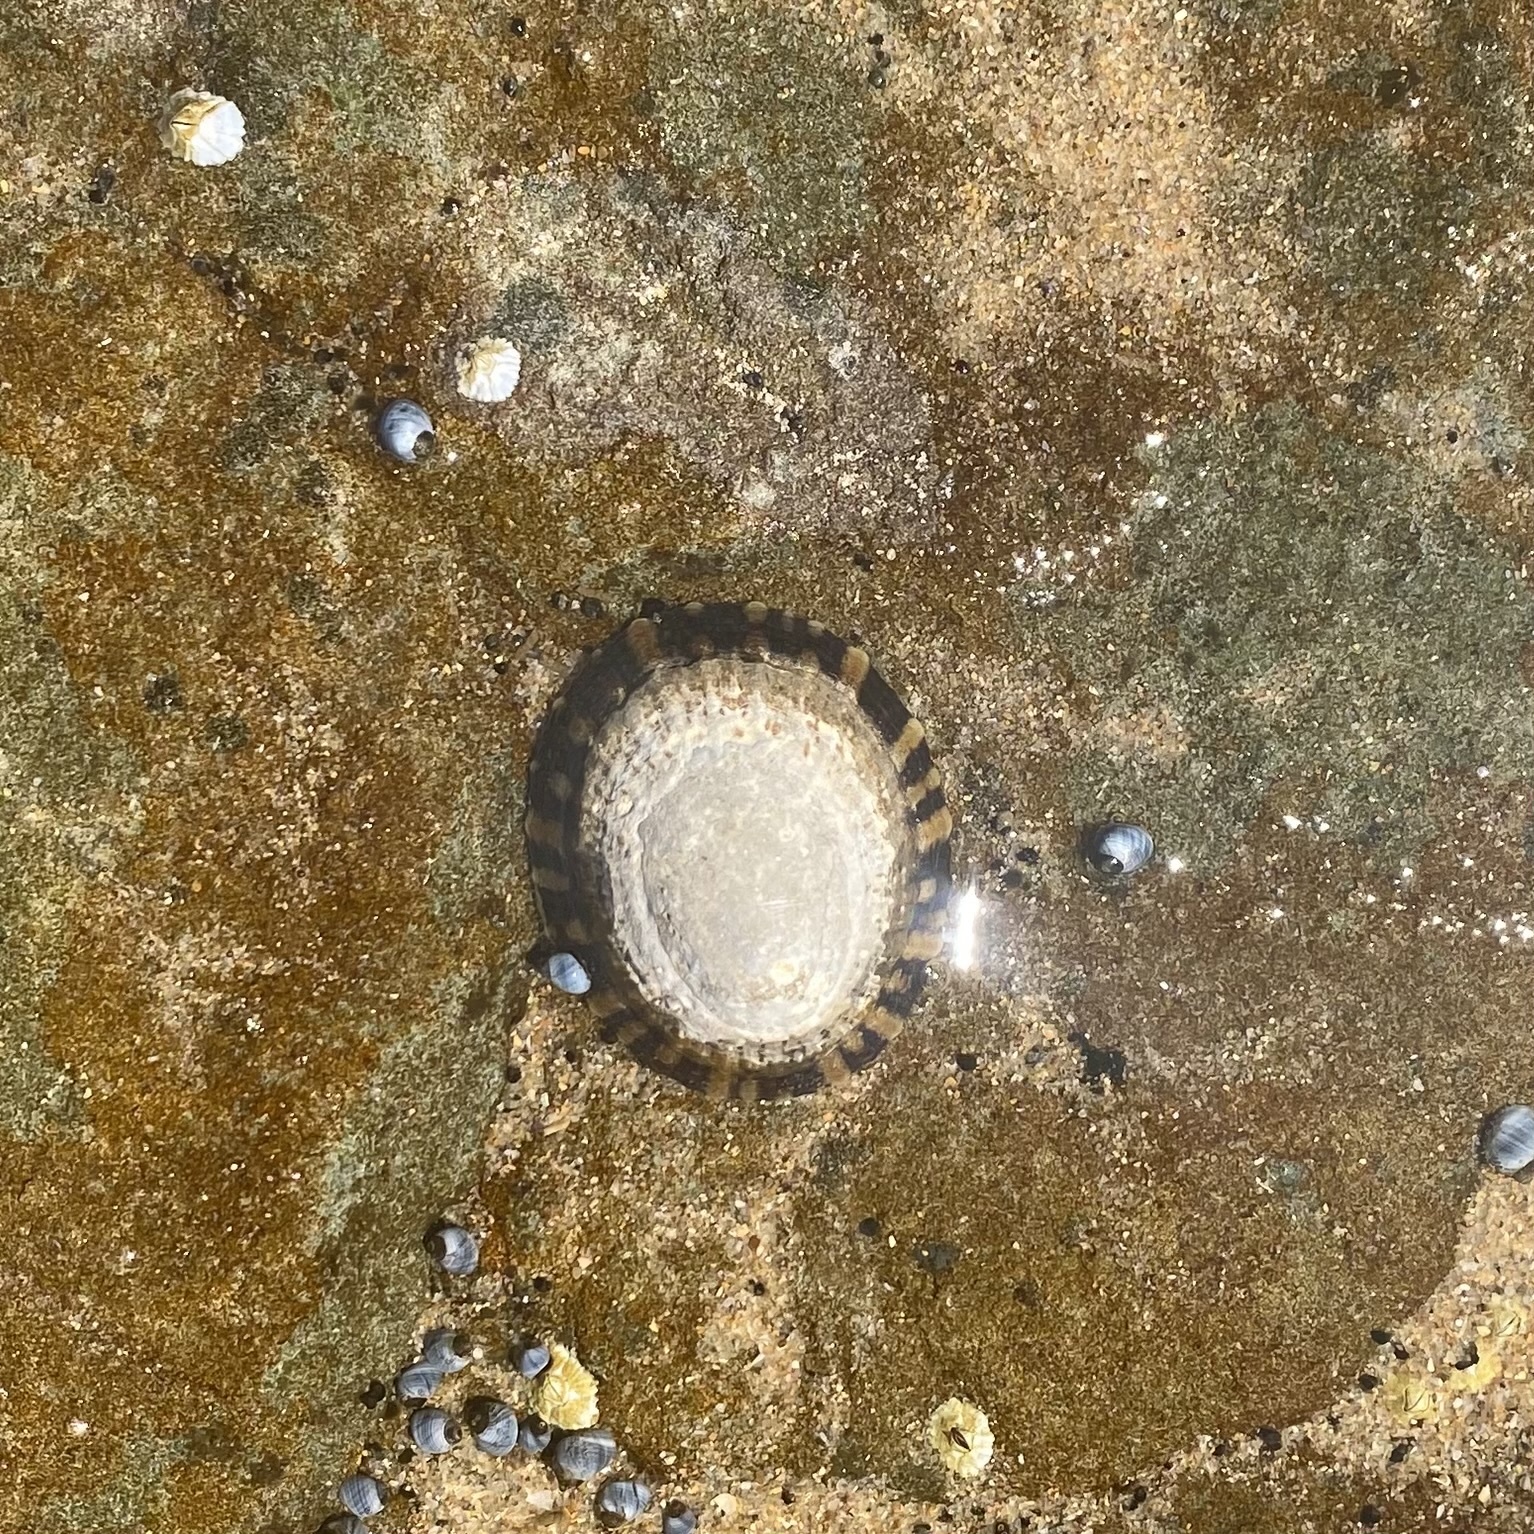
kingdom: Animalia
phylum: Mollusca
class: Gastropoda
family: Nacellidae
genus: Cellana
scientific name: Cellana tramoserica
